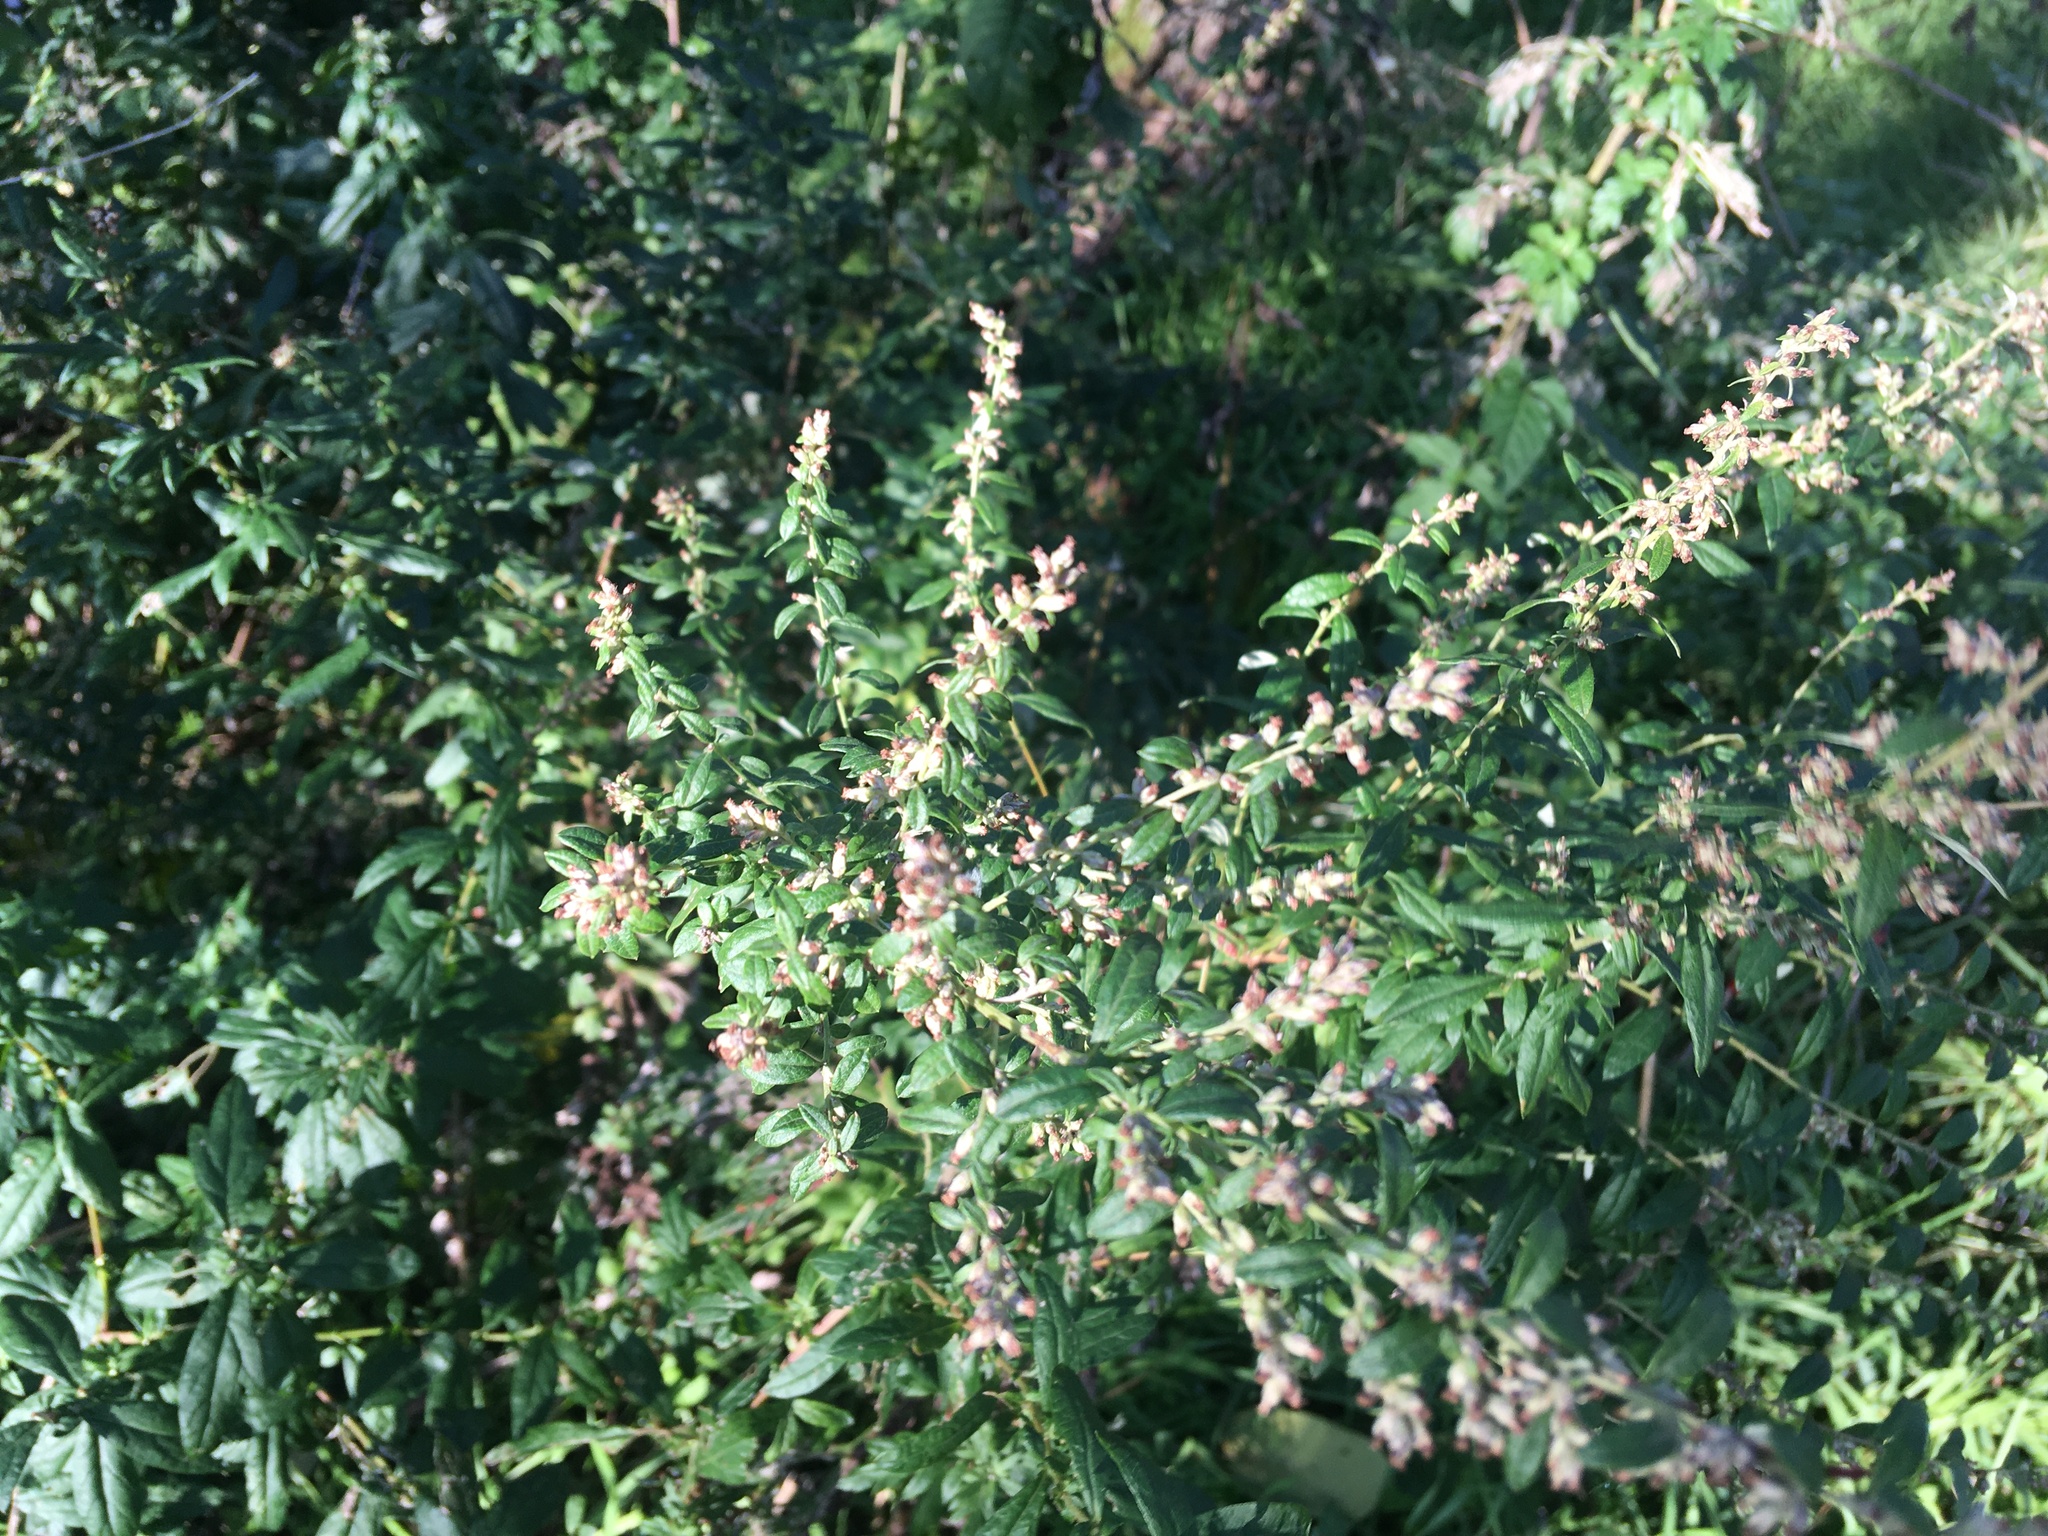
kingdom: Plantae
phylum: Tracheophyta
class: Magnoliopsida
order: Asterales
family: Asteraceae
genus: Artemisia
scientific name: Artemisia vulgaris
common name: Mugwort
